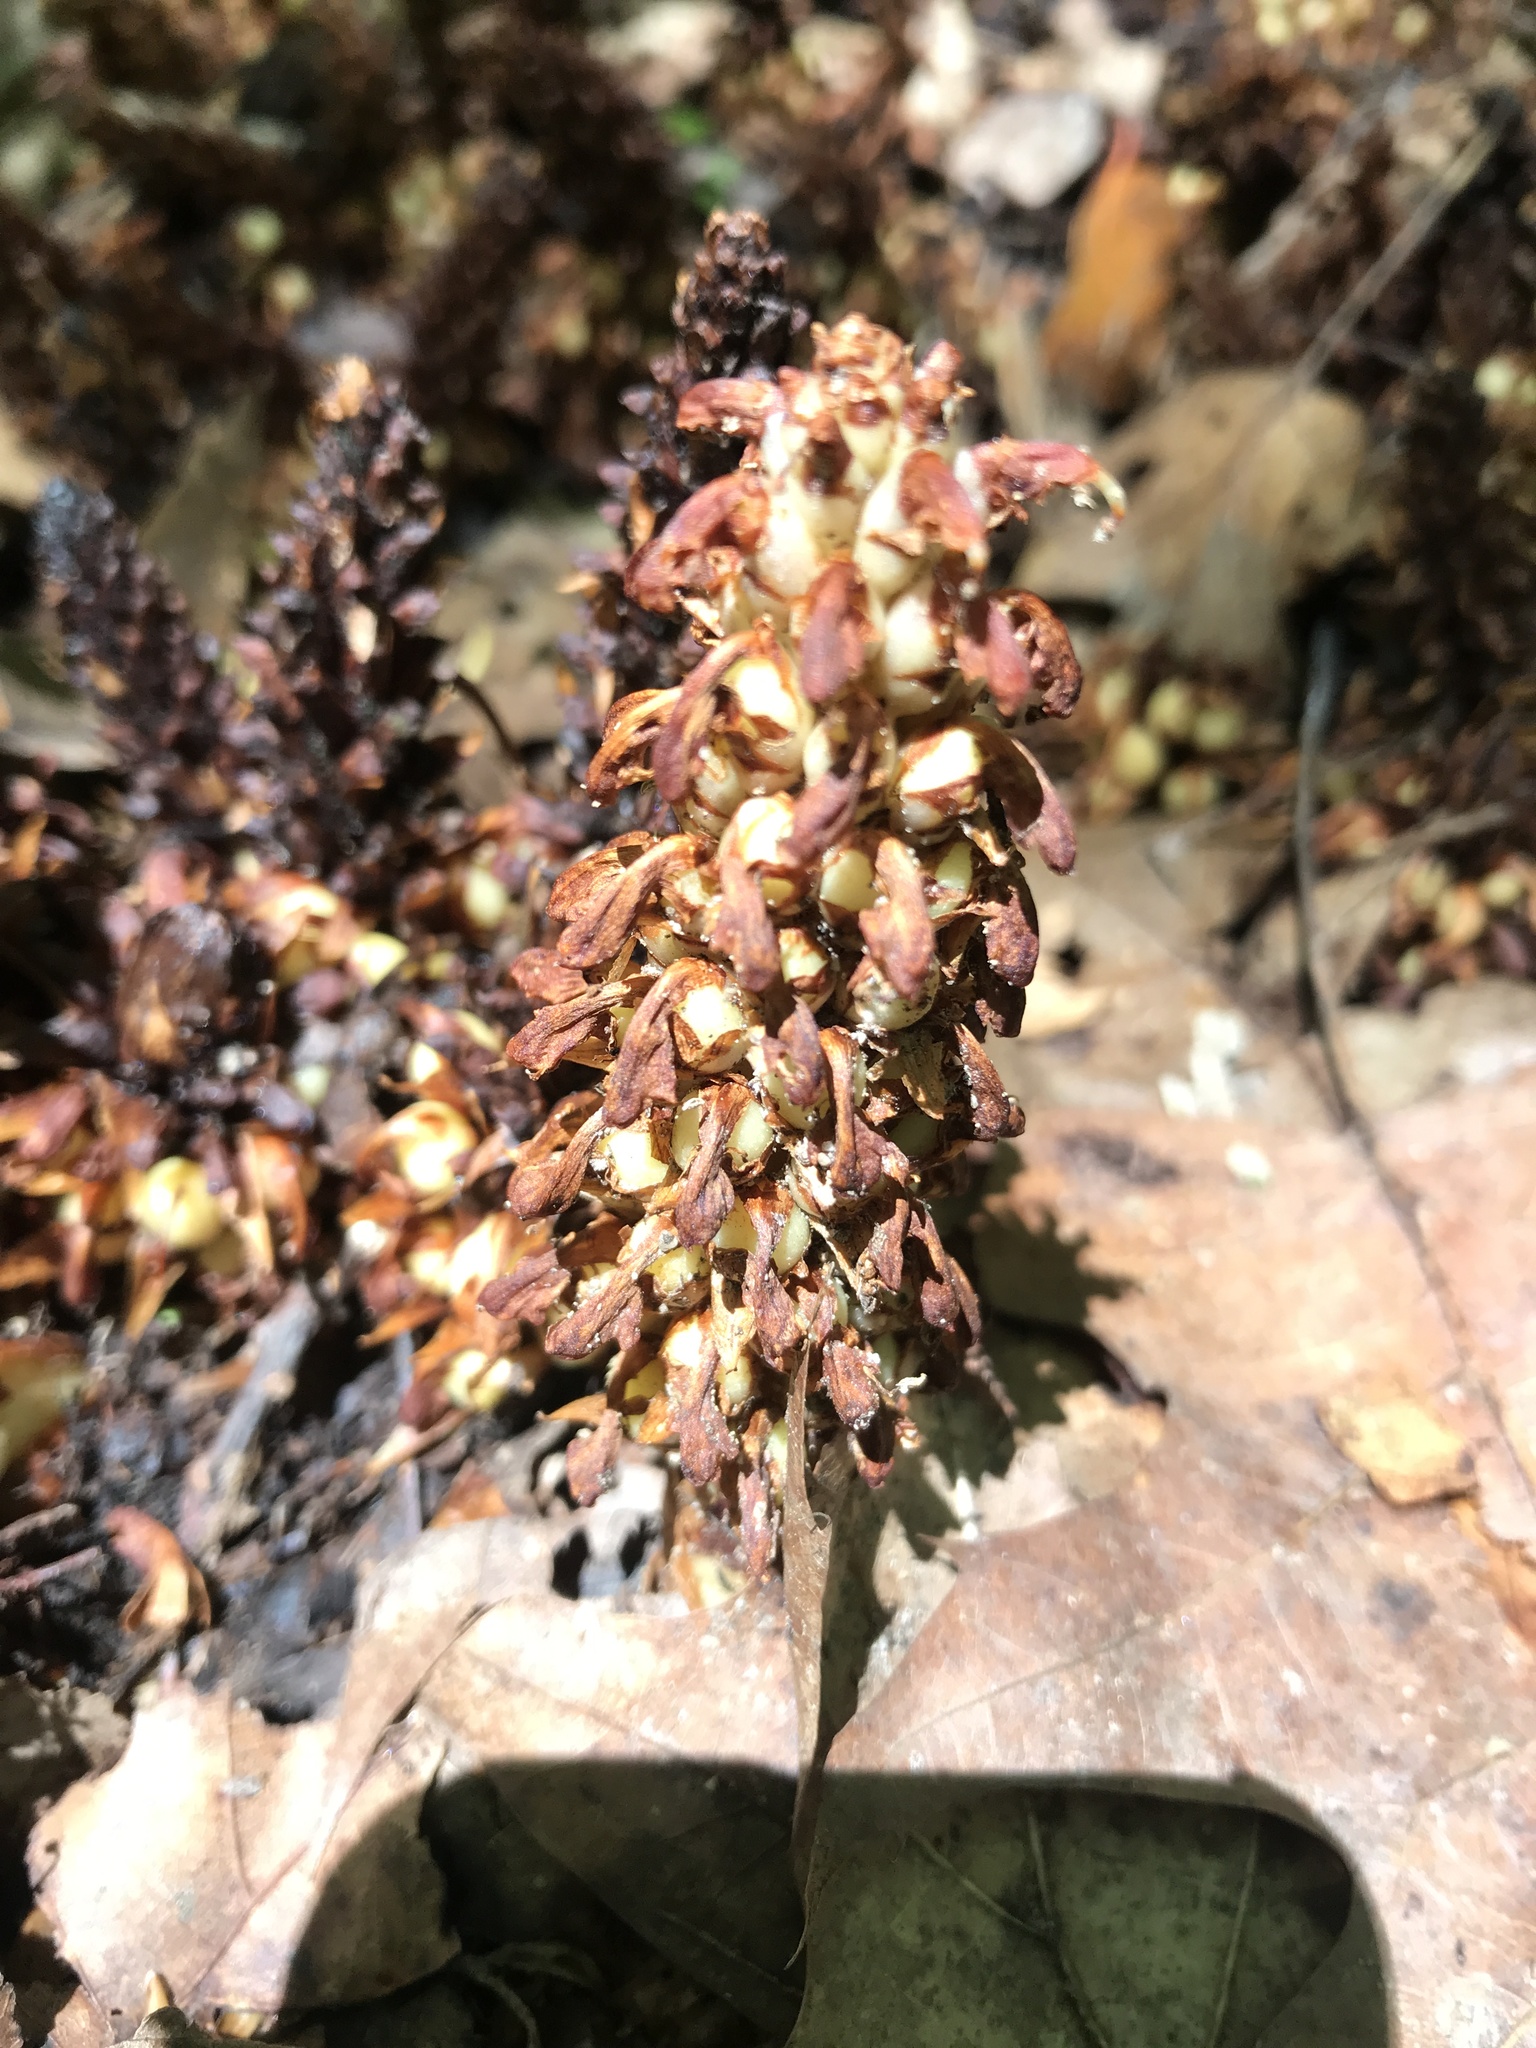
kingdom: Plantae
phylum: Tracheophyta
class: Magnoliopsida
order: Lamiales
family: Orobanchaceae
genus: Conopholis
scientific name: Conopholis americana
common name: American cancer-root
